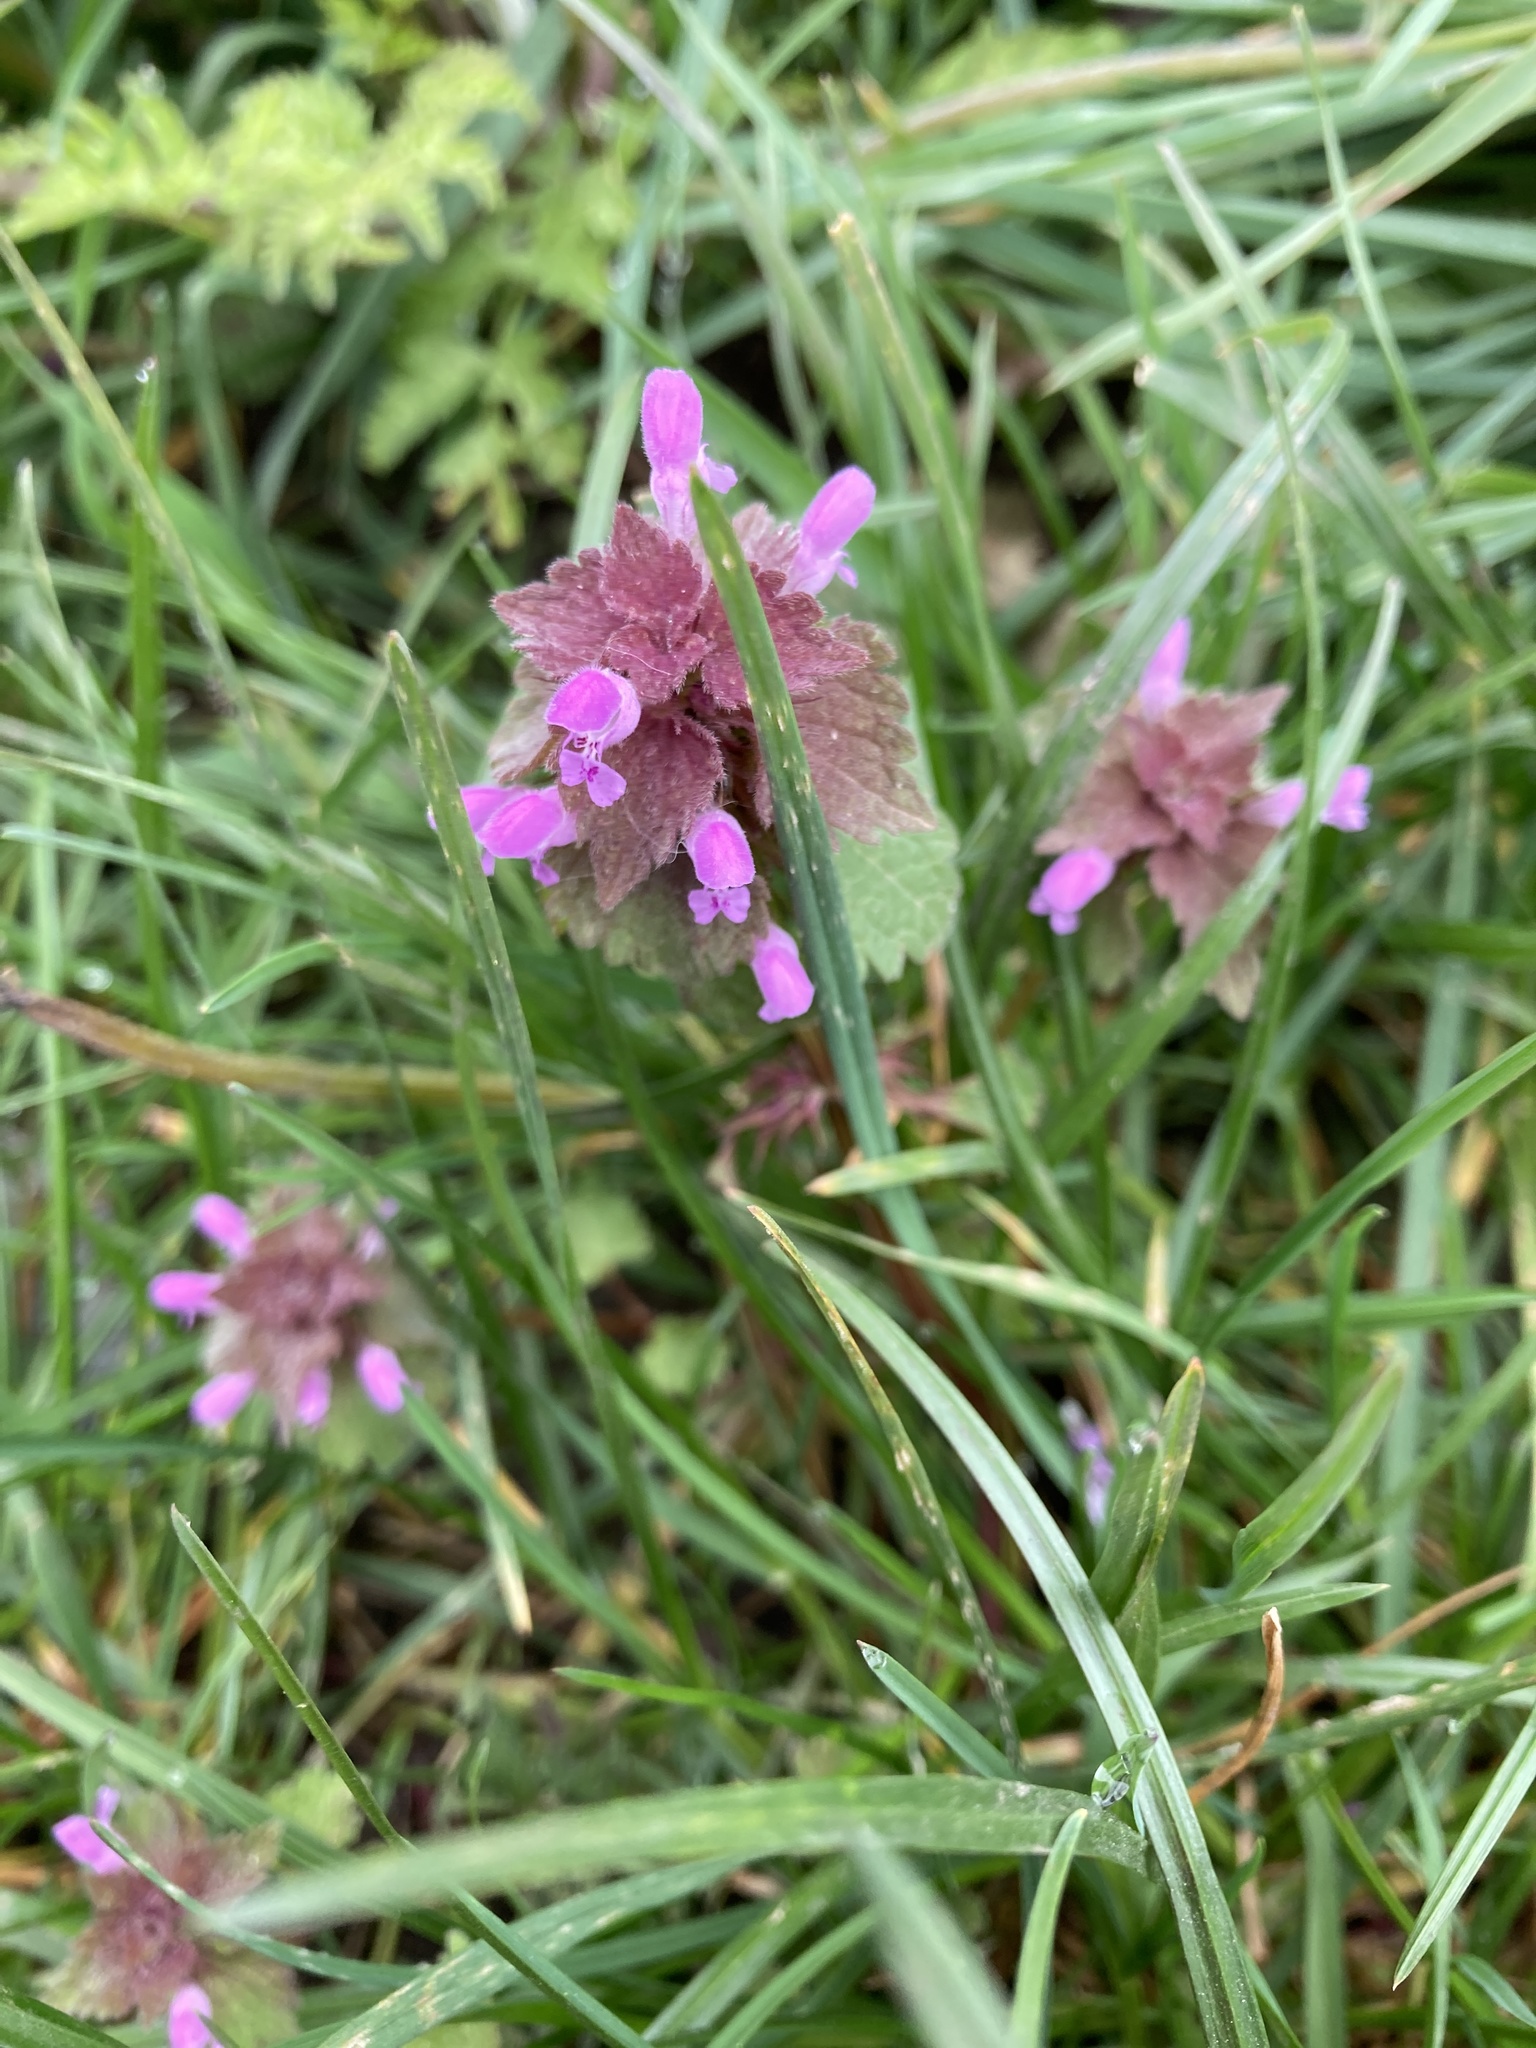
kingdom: Plantae
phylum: Tracheophyta
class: Magnoliopsida
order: Lamiales
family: Lamiaceae
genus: Lamium
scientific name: Lamium purpureum
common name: Red dead-nettle
